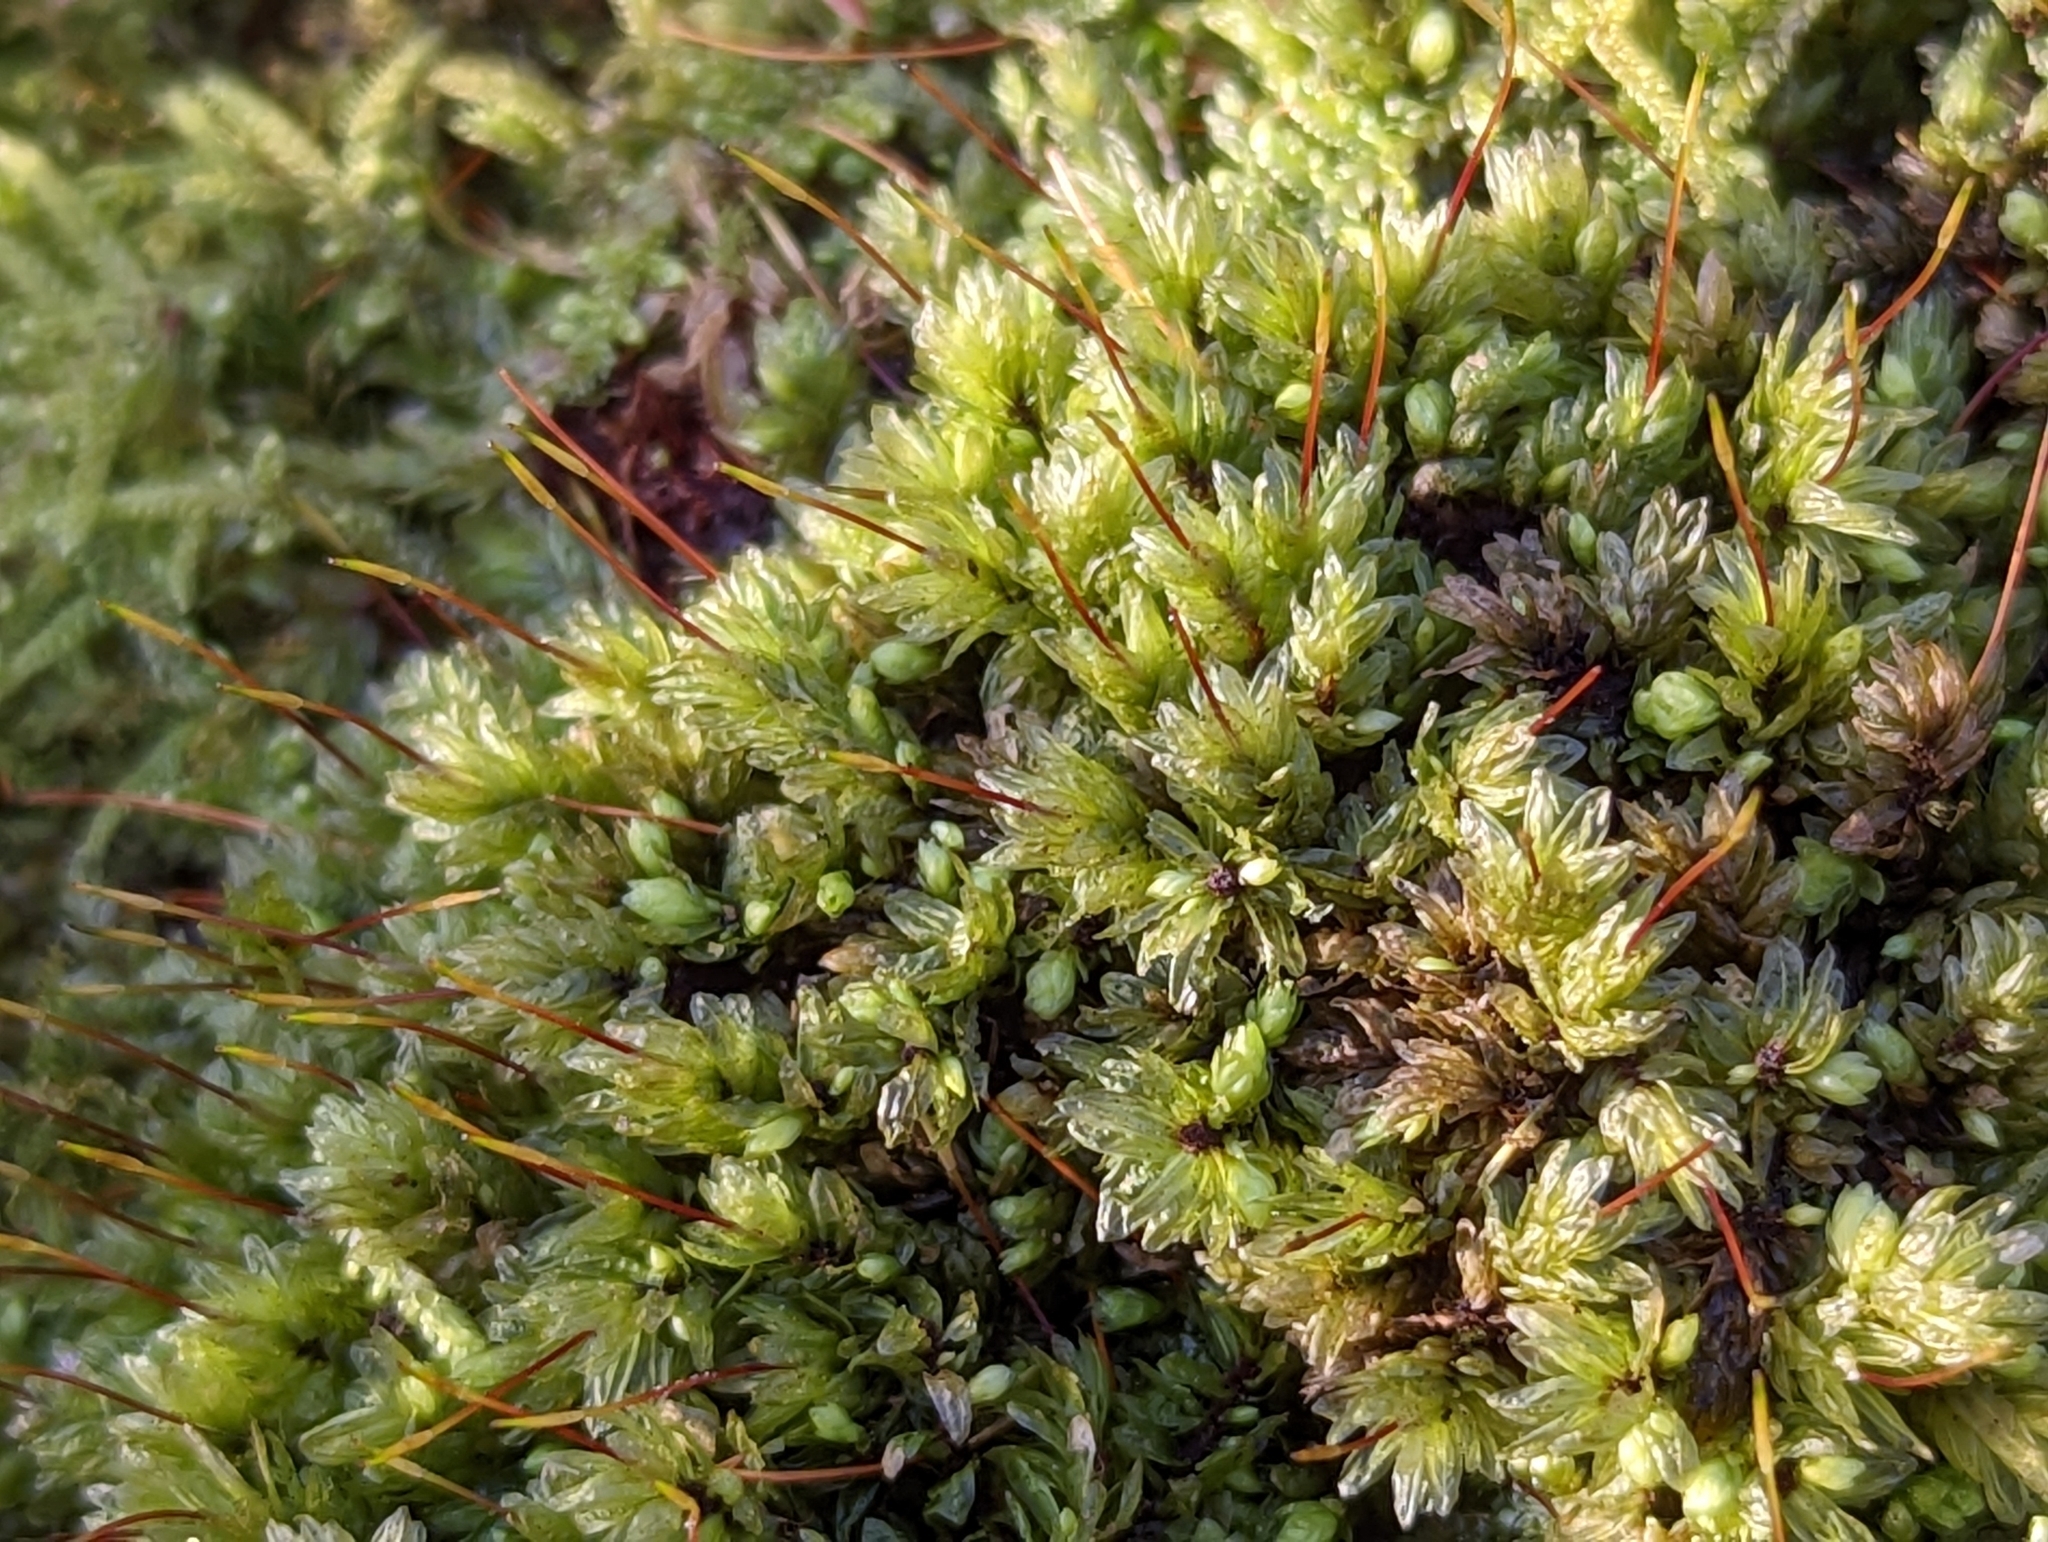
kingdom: Plantae
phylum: Bryophyta
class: Bryopsida
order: Aulacomniales
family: Aulacomniaceae
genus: Aulacomnium
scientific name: Aulacomnium heterostichum
